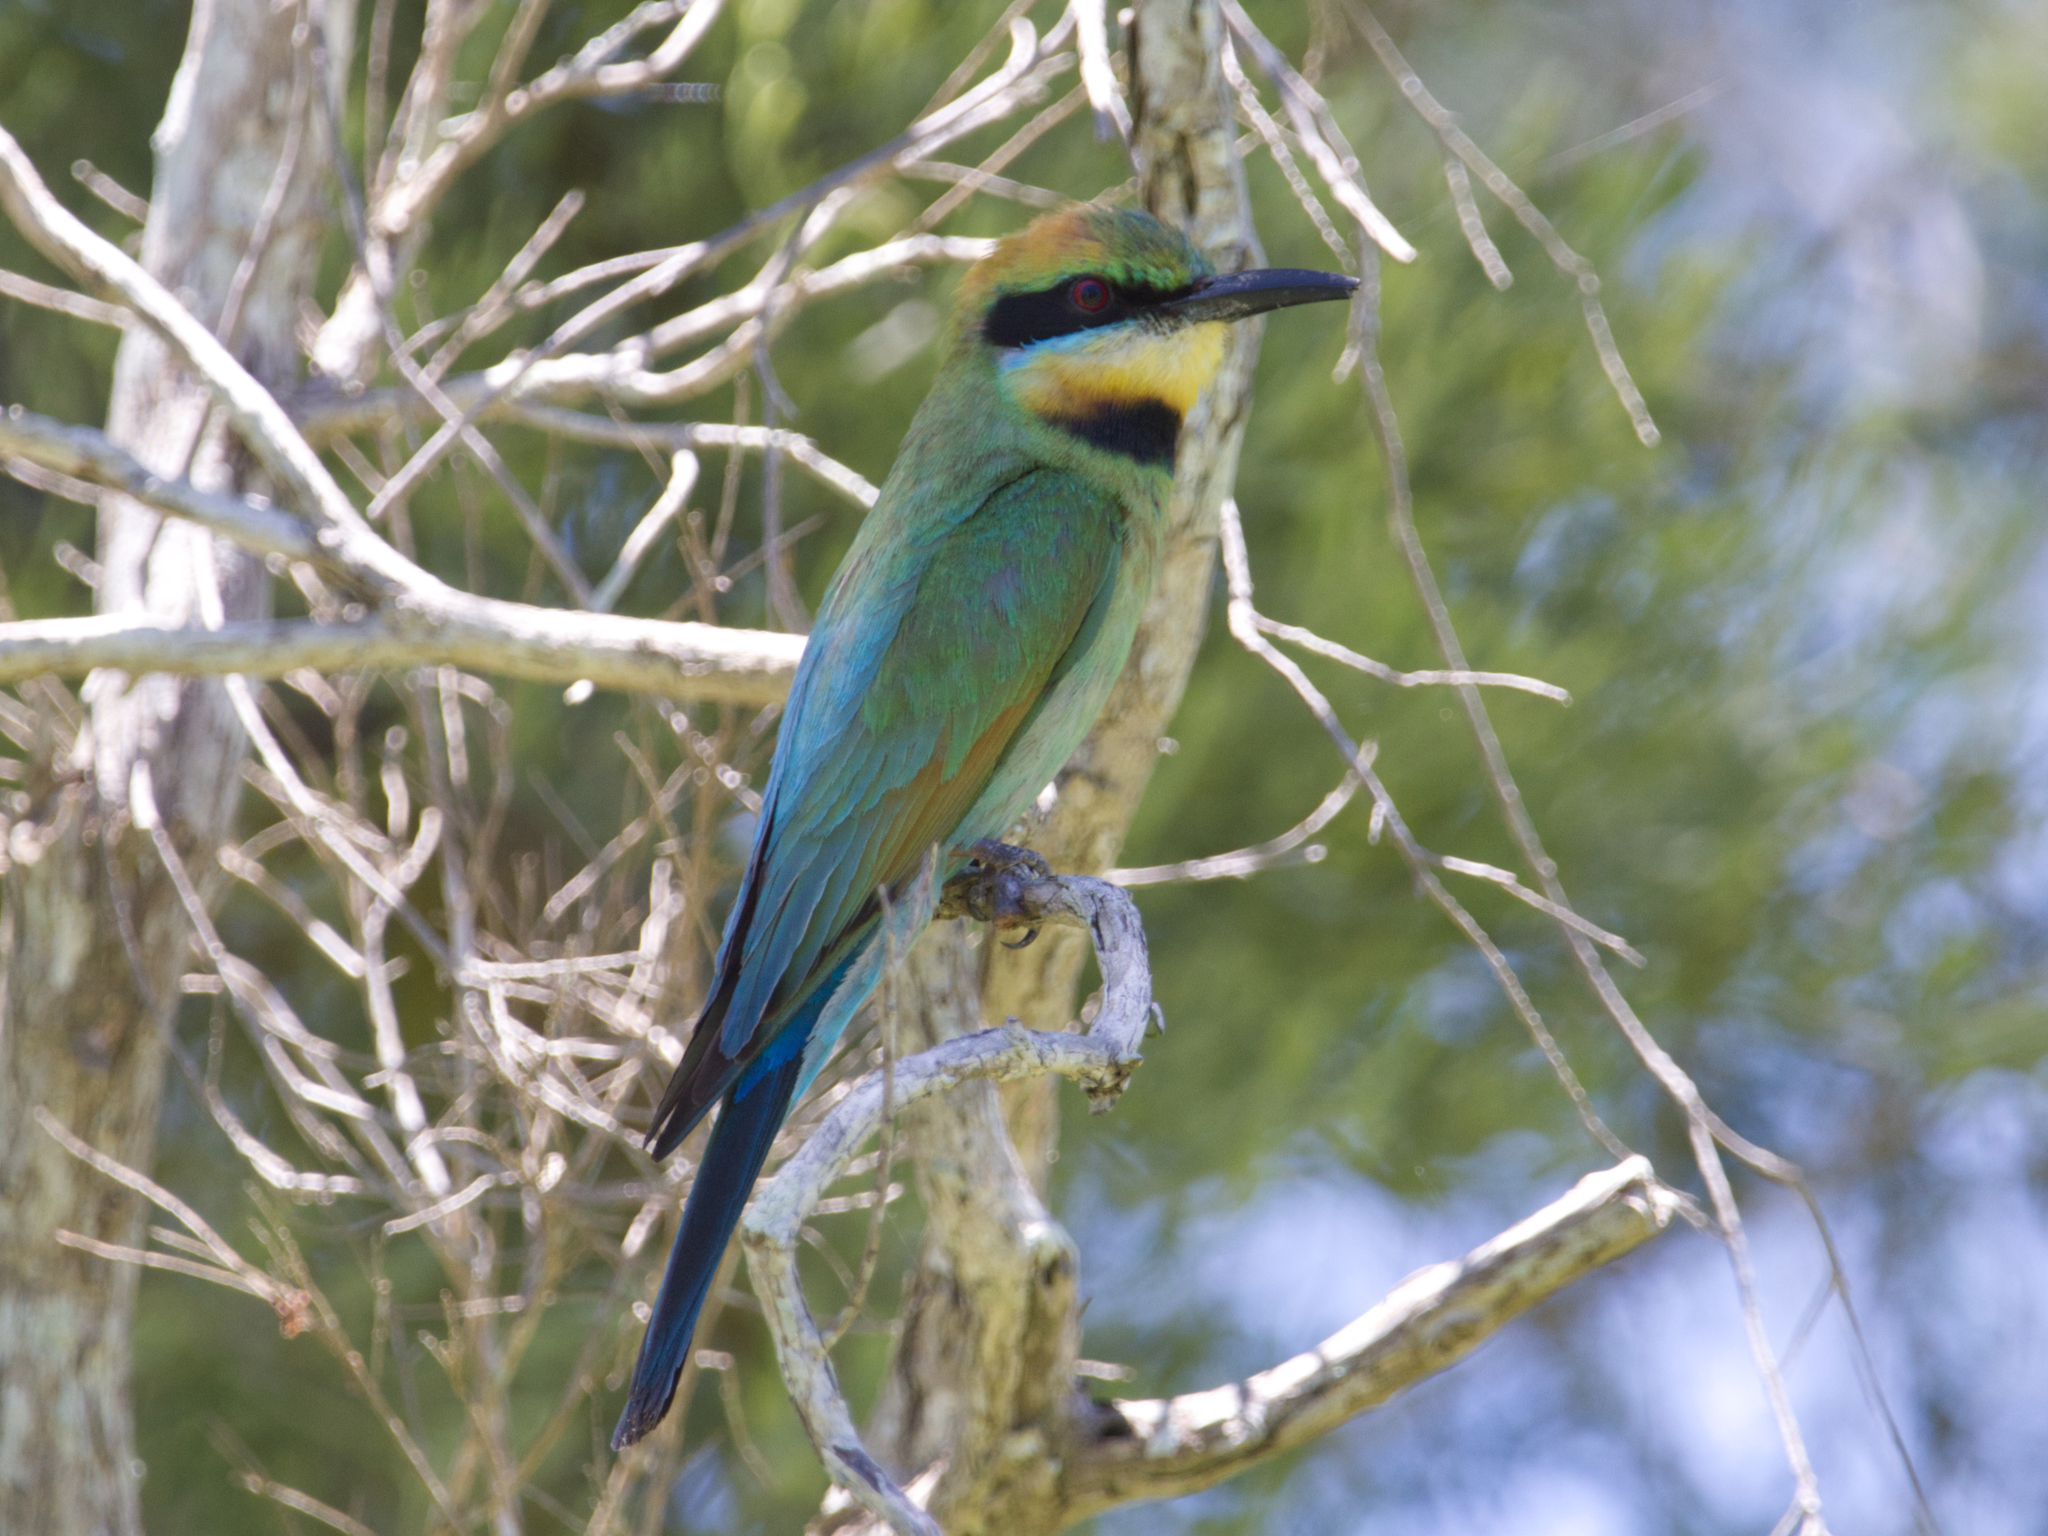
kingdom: Animalia
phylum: Chordata
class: Aves
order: Coraciiformes
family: Meropidae
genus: Merops
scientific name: Merops ornatus
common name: Rainbow bee-eater
